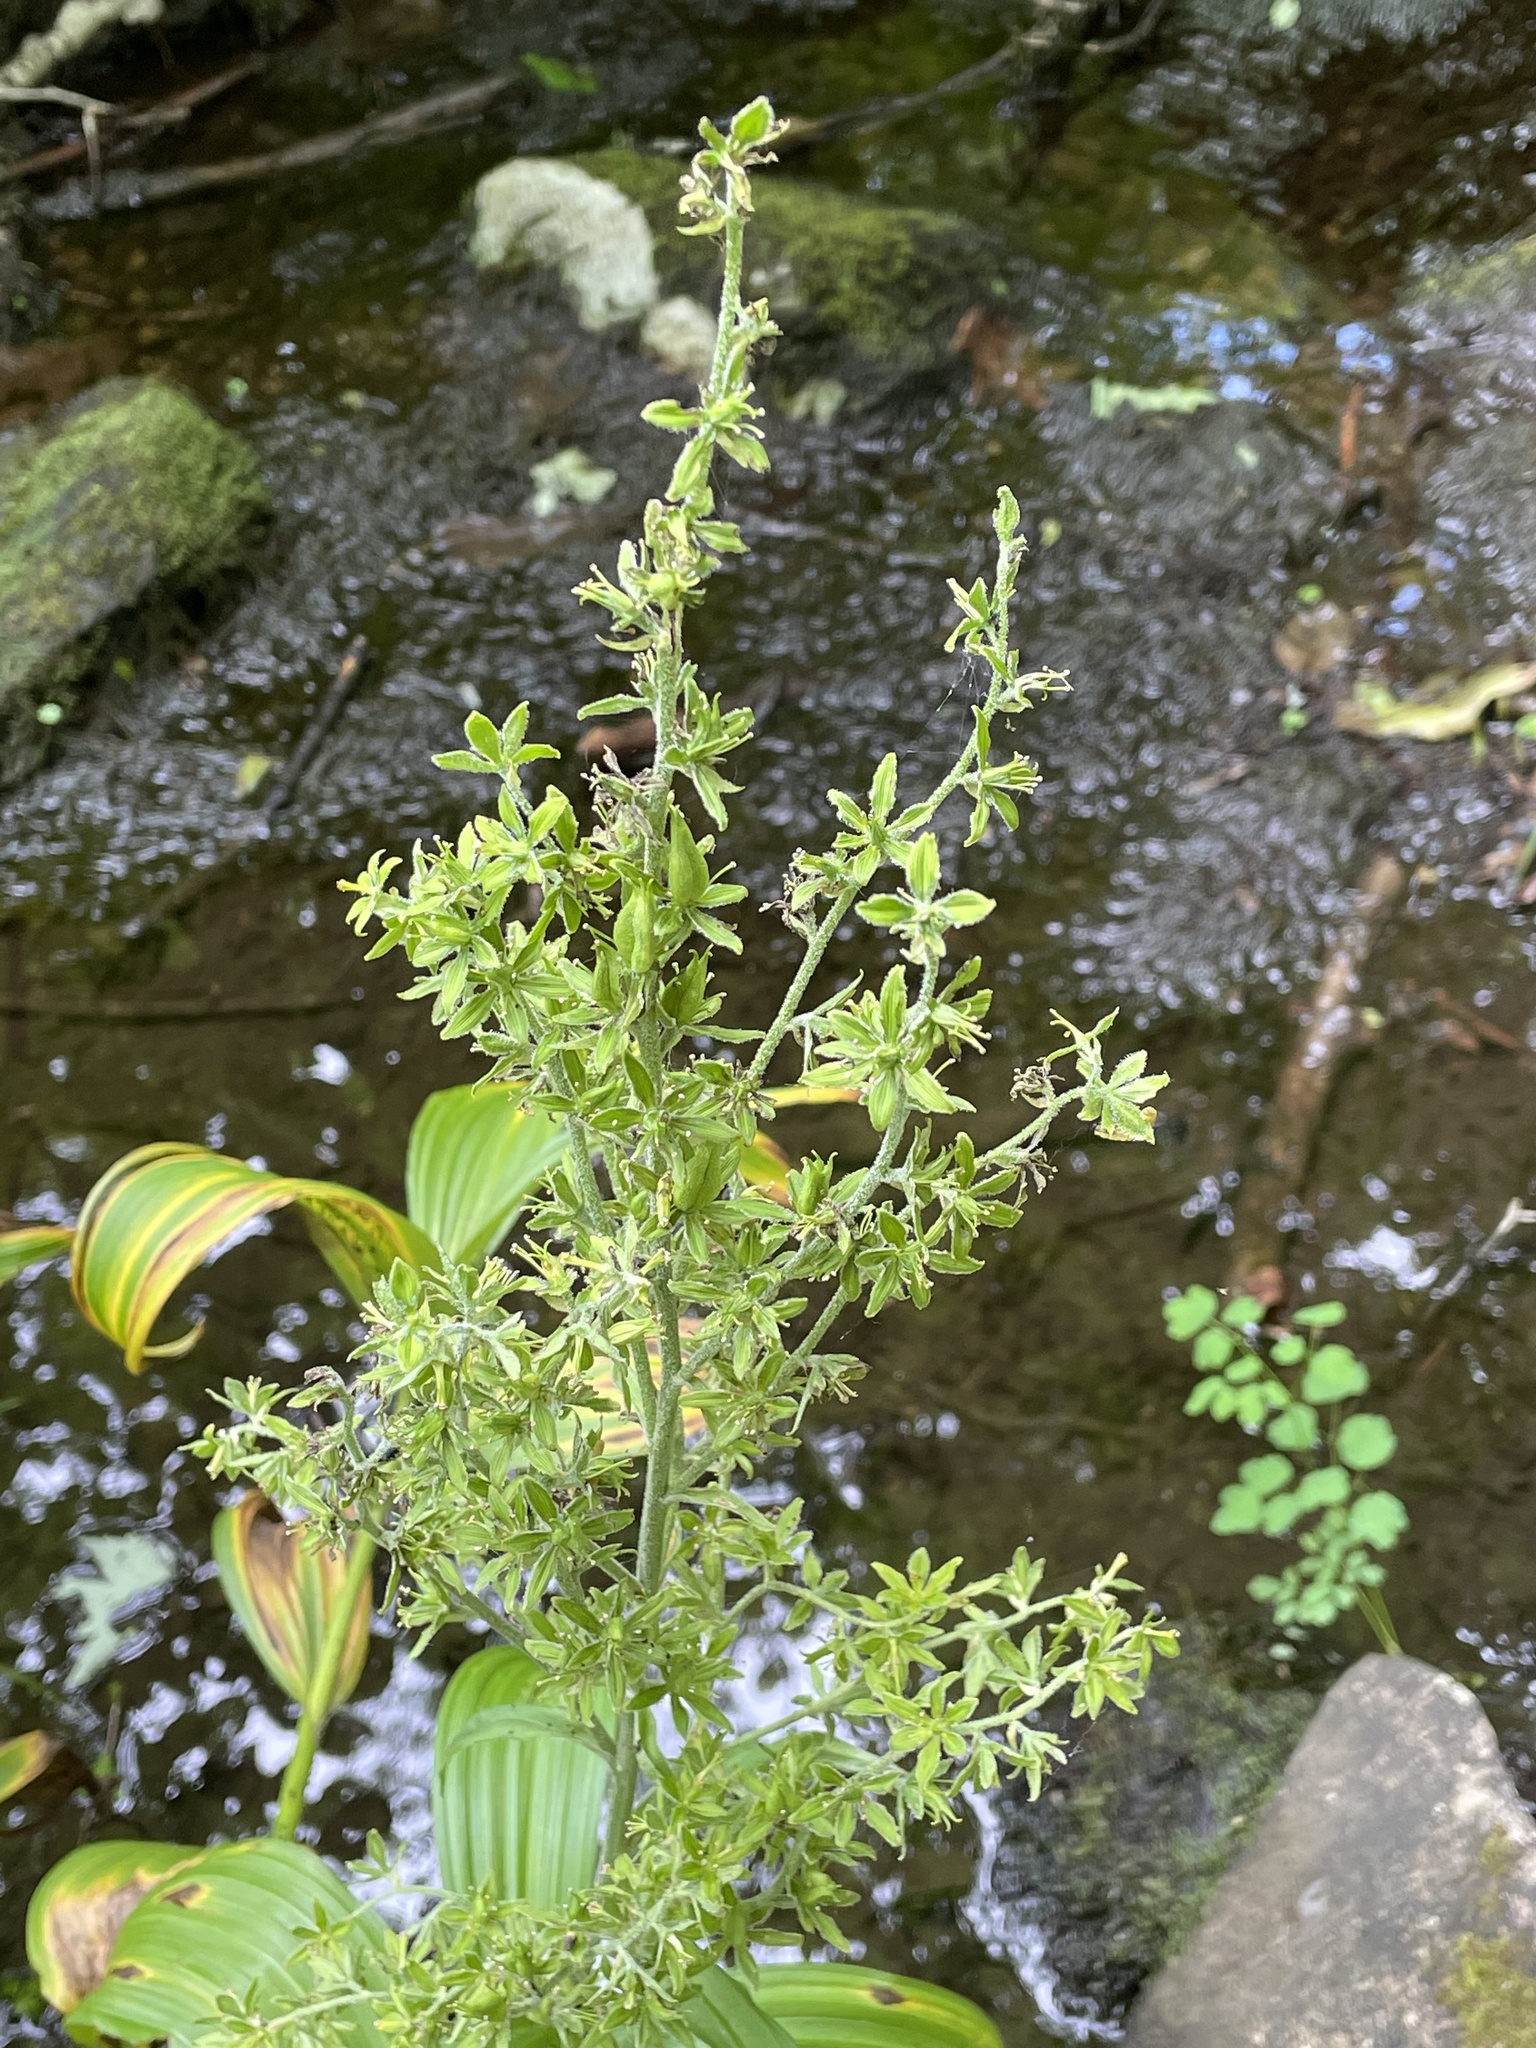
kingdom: Plantae
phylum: Tracheophyta
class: Liliopsida
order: Liliales
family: Melanthiaceae
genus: Veratrum
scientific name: Veratrum viride
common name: American false hellebore
